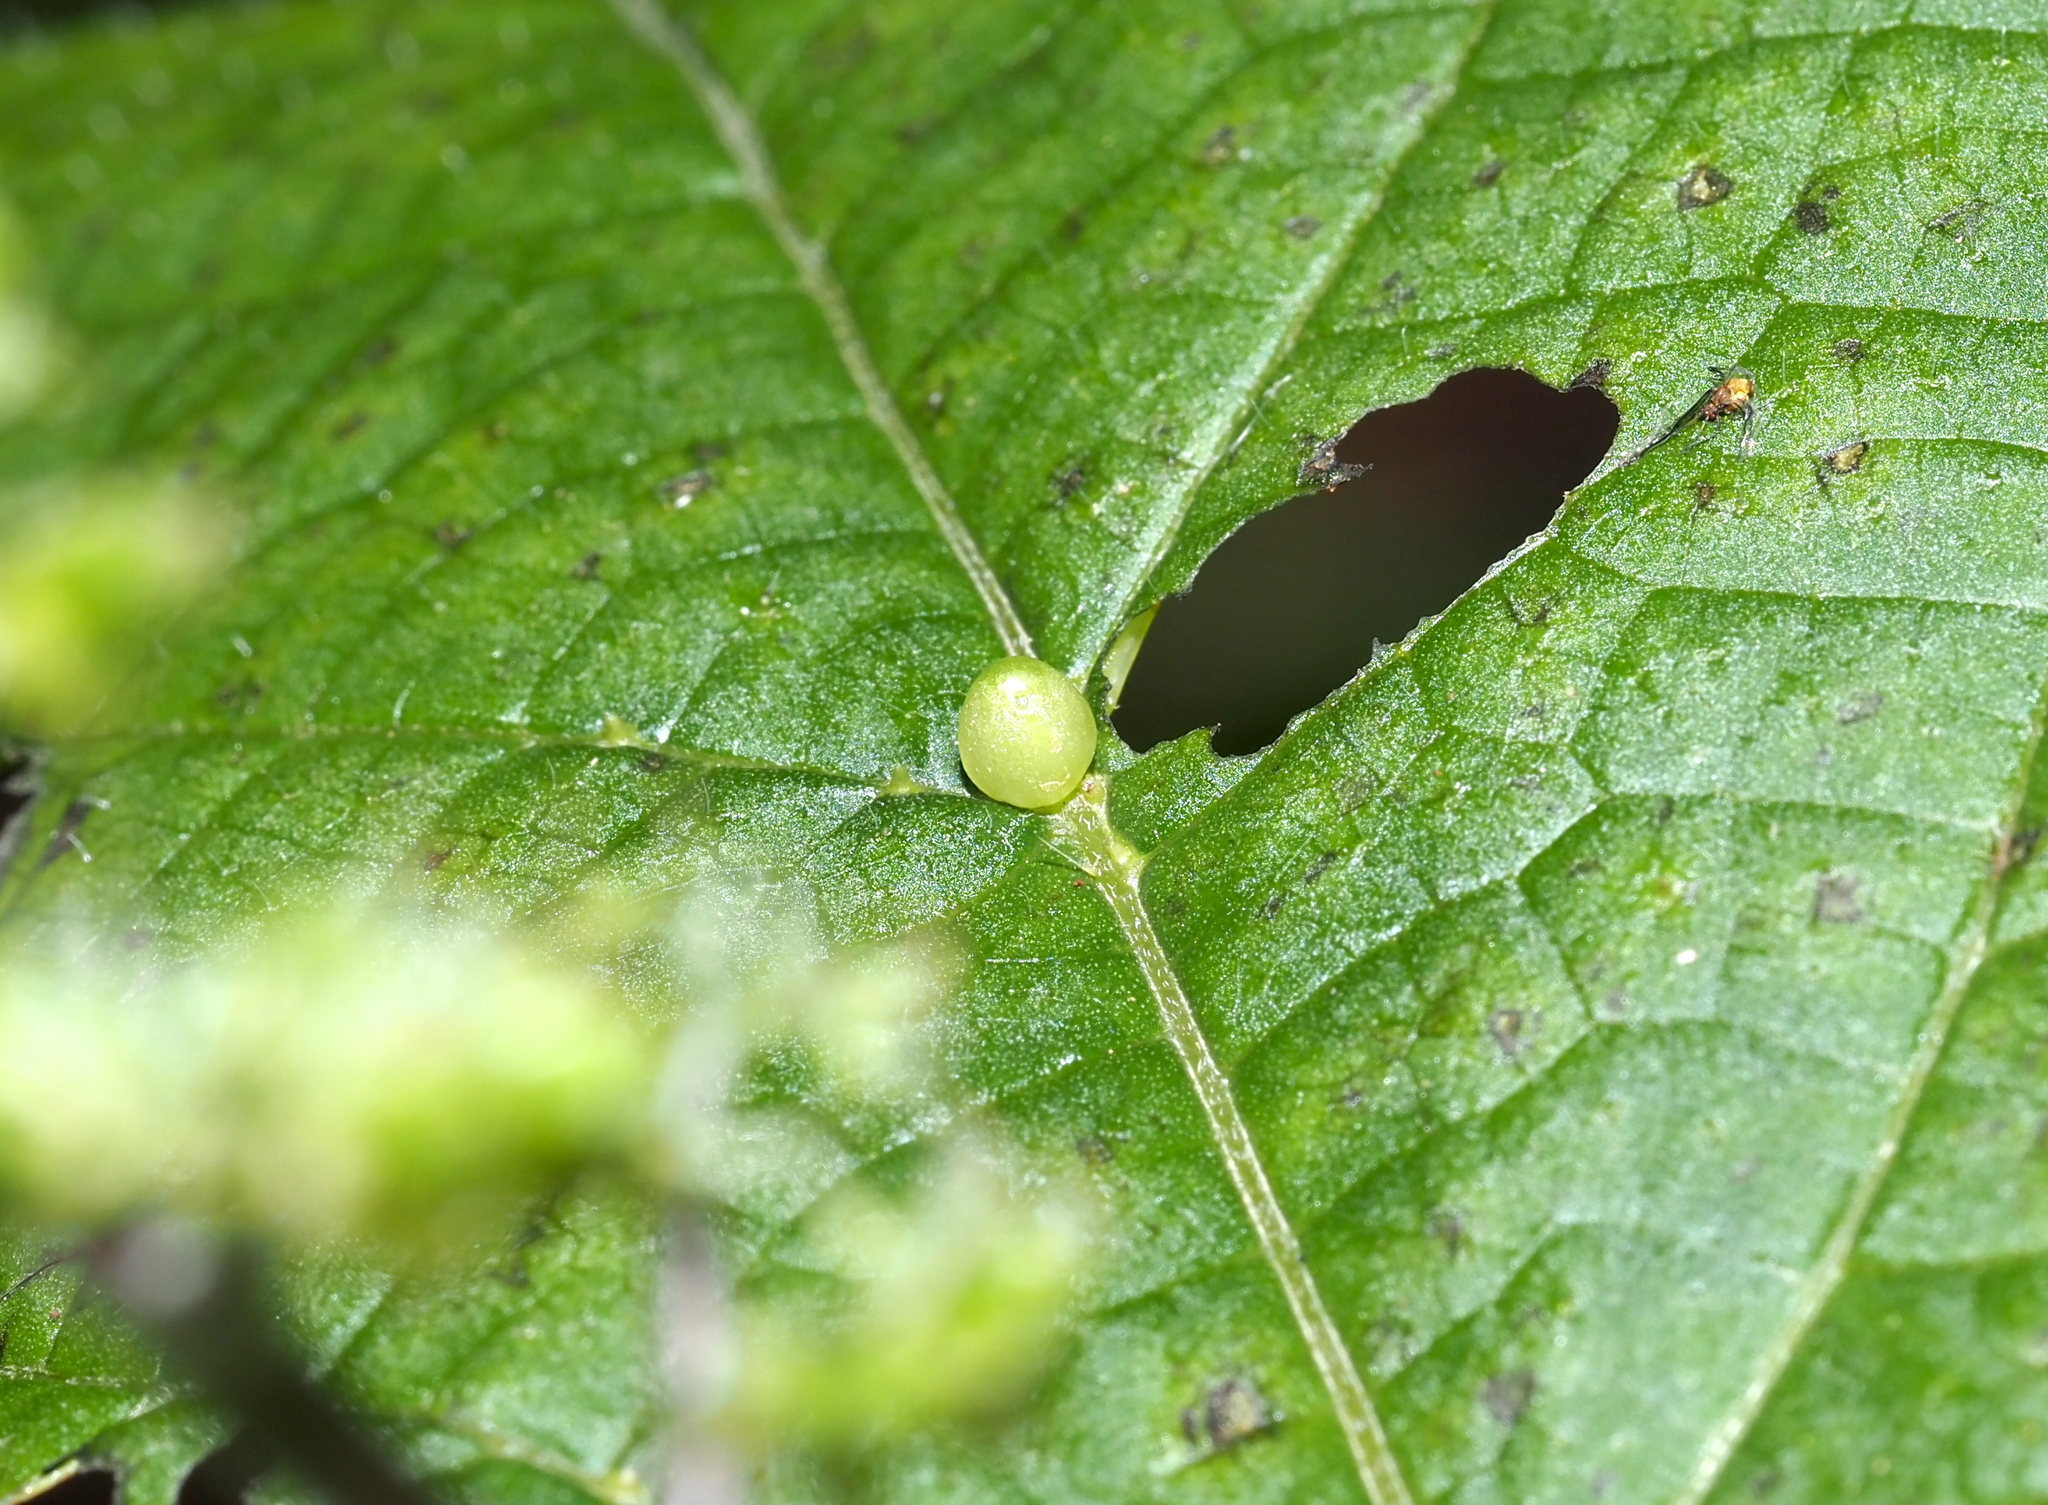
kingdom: Animalia
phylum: Arthropoda
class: Insecta
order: Diptera
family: Cecidomyiidae
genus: Dasineura
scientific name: Dasineura investita
